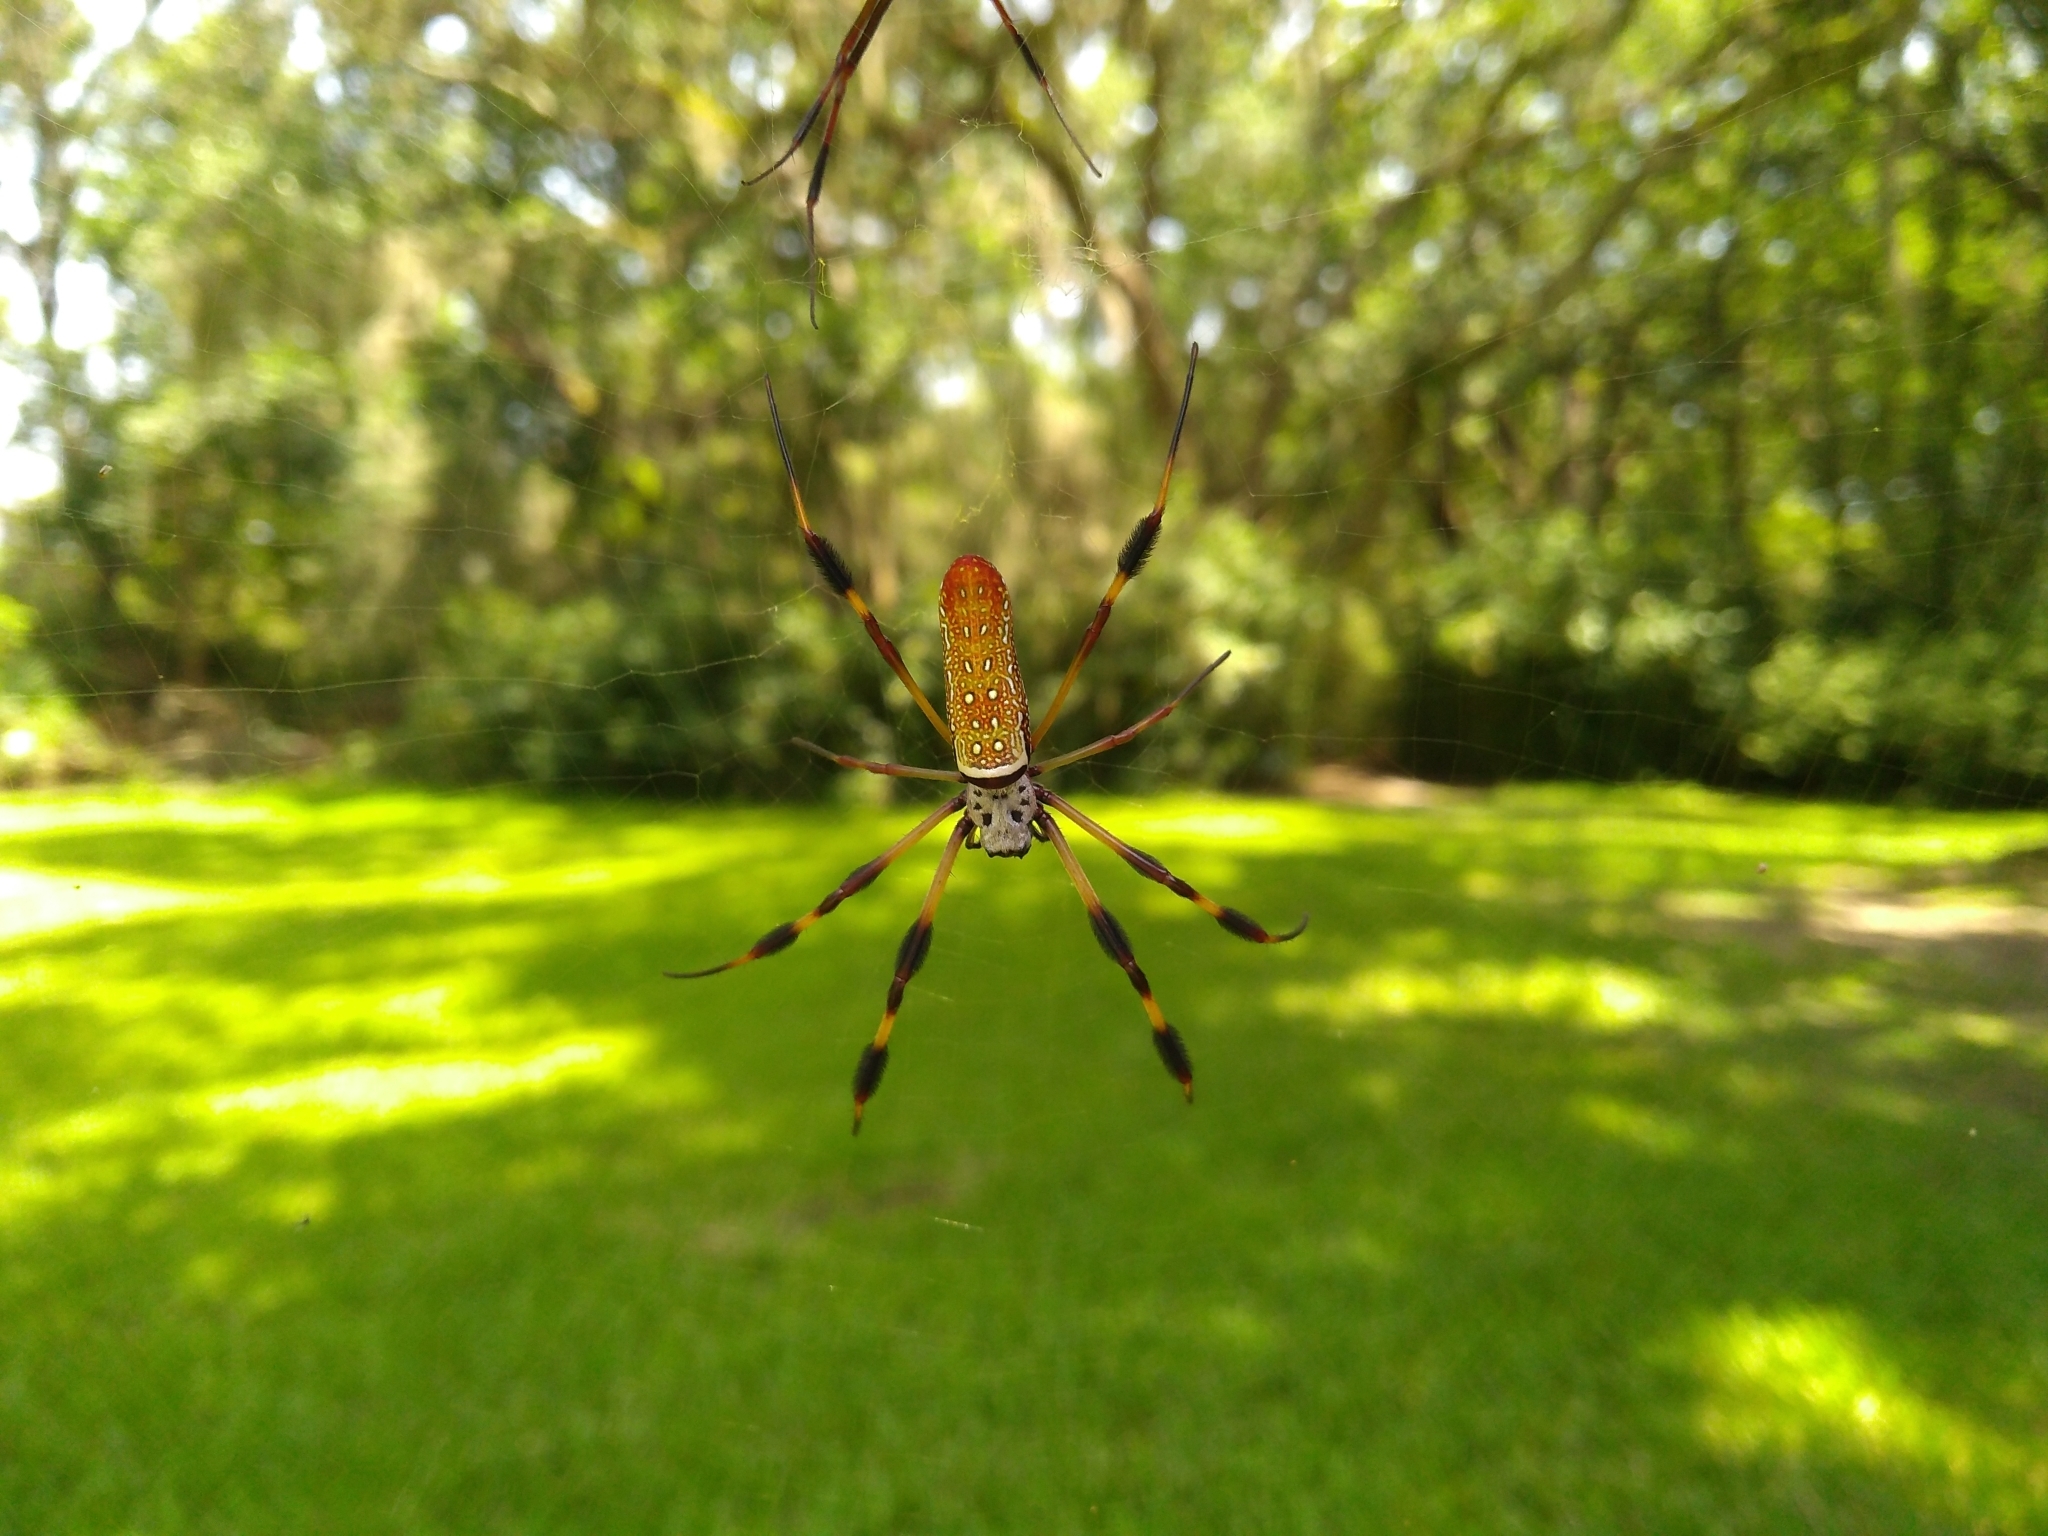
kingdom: Animalia
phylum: Arthropoda
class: Arachnida
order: Araneae
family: Araneidae
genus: Trichonephila
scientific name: Trichonephila clavipes
